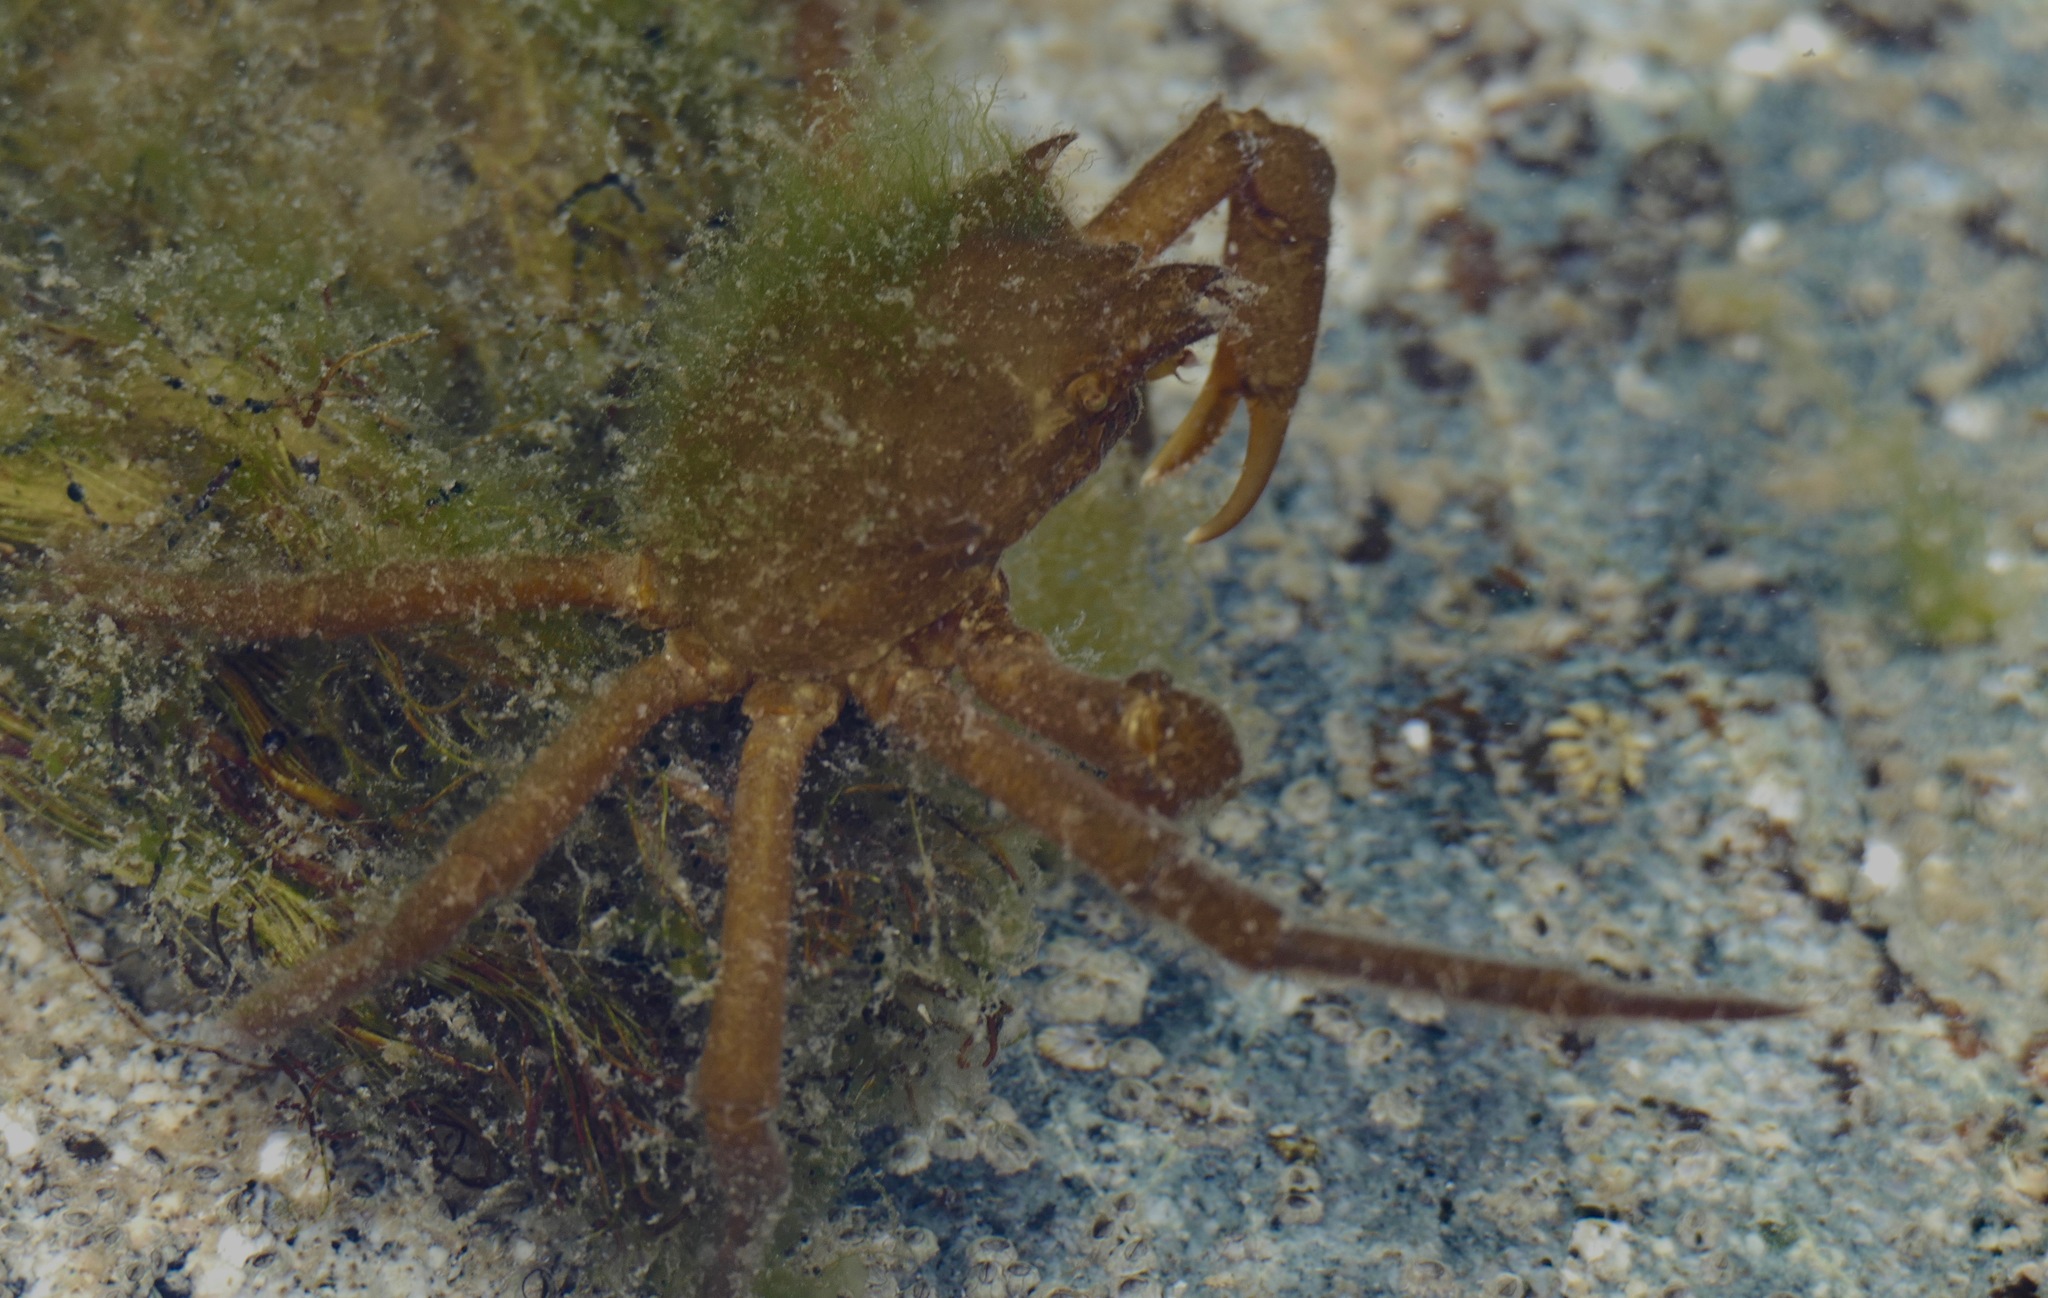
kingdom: Animalia
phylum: Arthropoda
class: Malacostraca
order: Decapoda
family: Epialtidae
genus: Pugettia
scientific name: Pugettia producta
